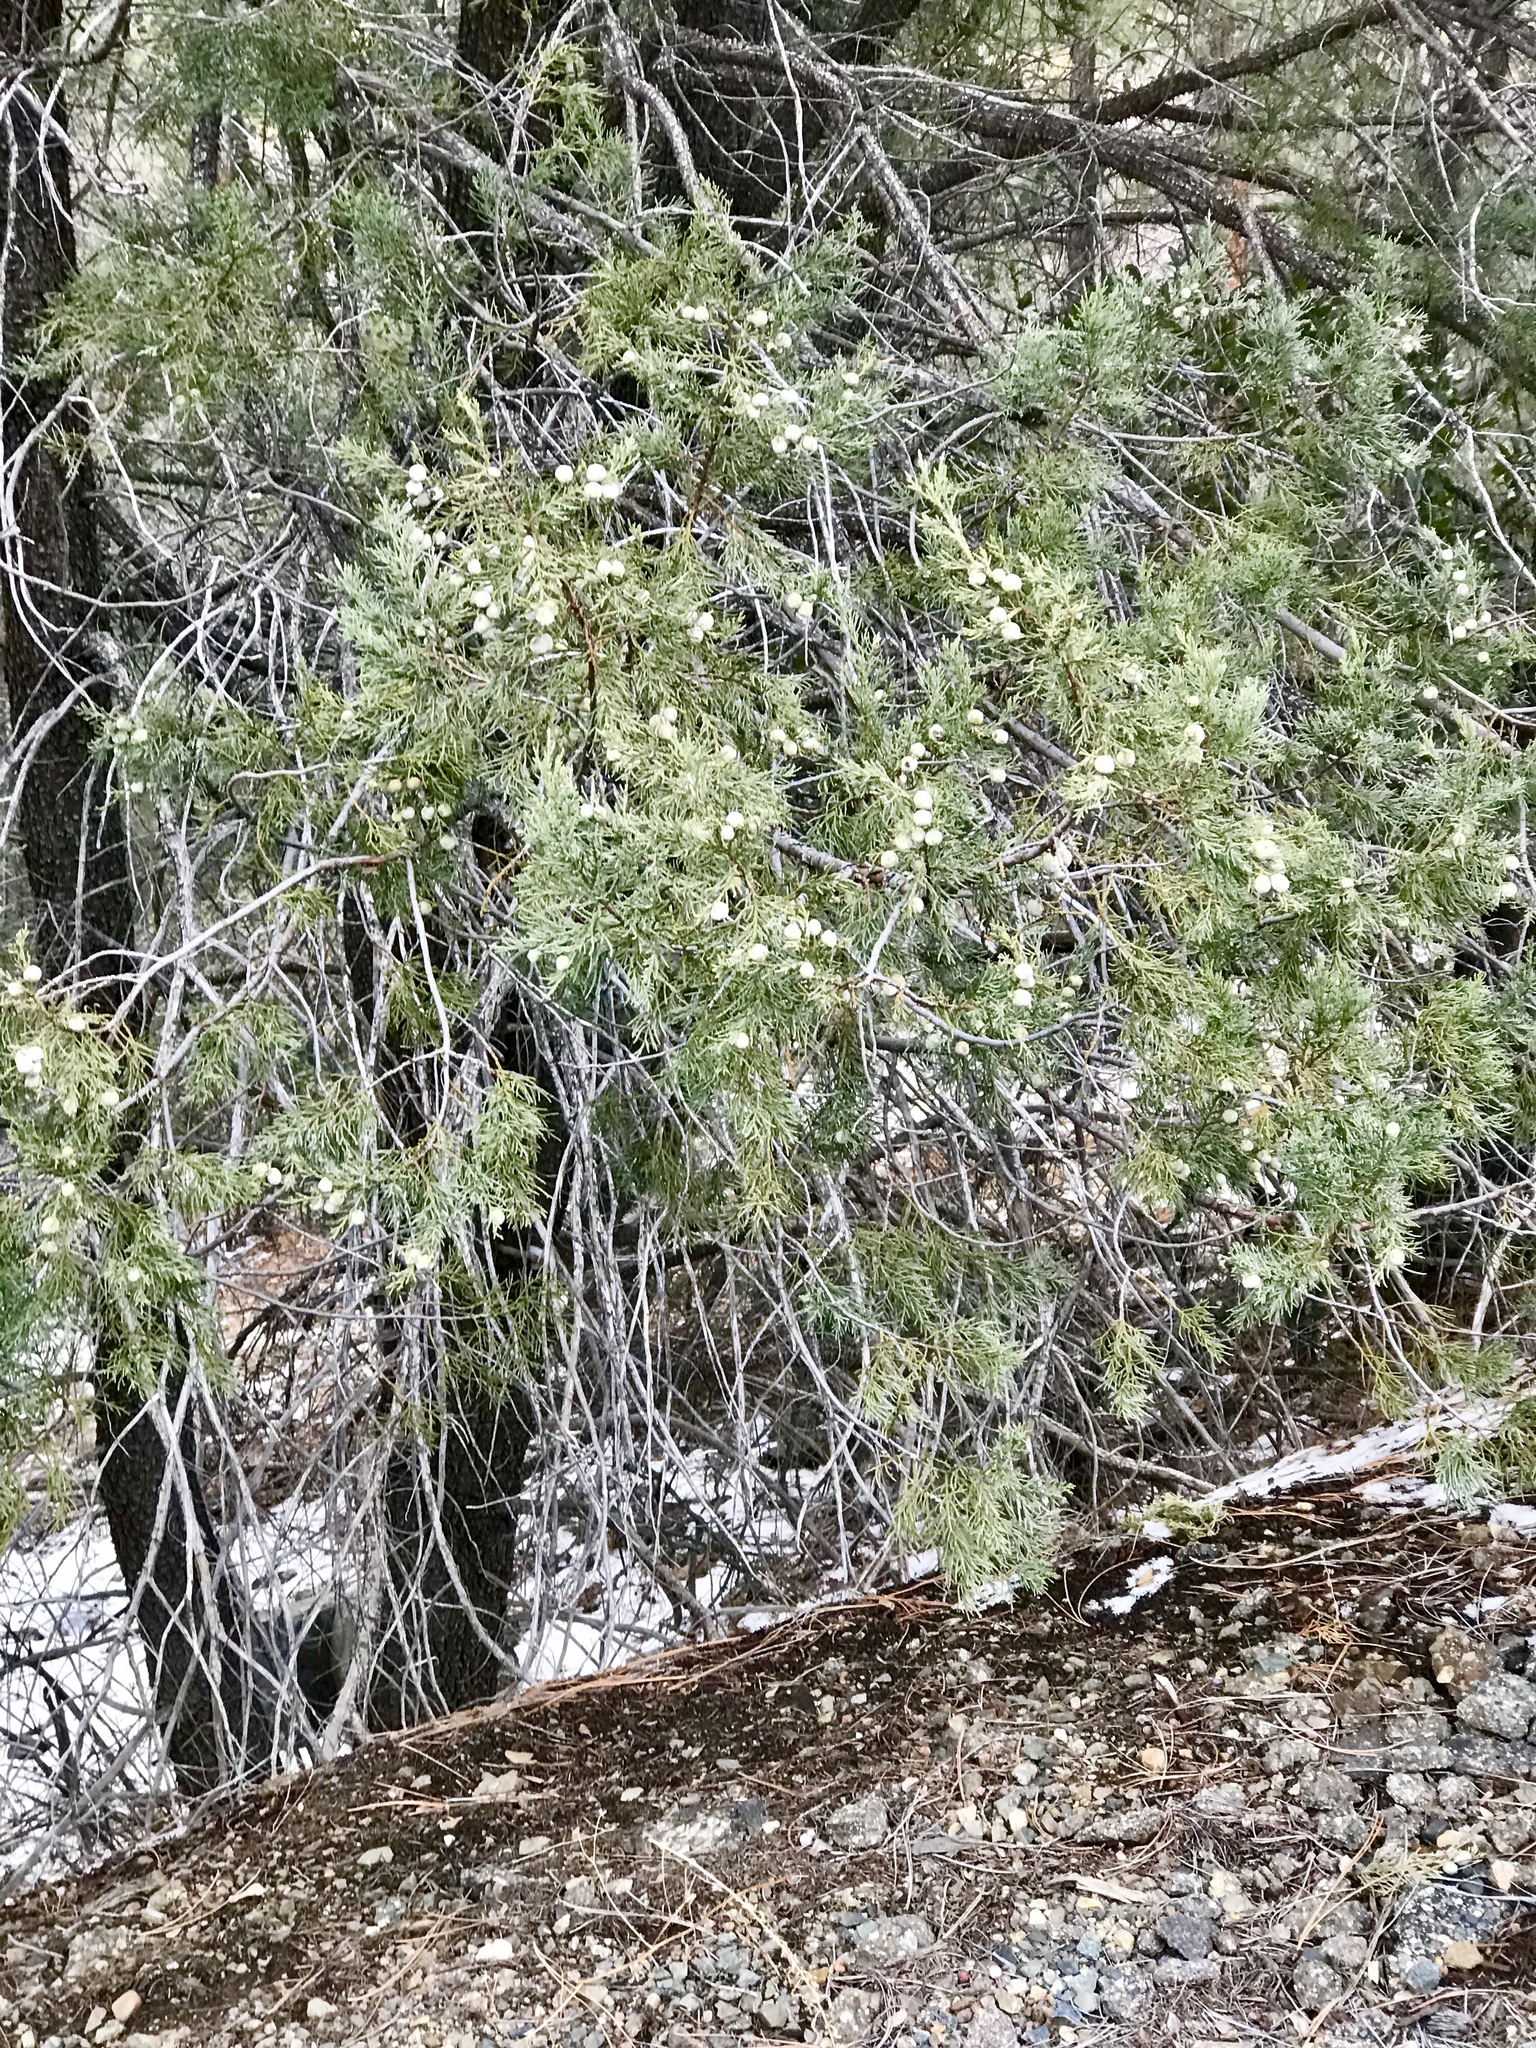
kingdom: Plantae
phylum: Tracheophyta
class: Pinopsida
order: Pinales
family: Cupressaceae
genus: Juniperus
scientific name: Juniperus deppeana
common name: Alligator juniper
